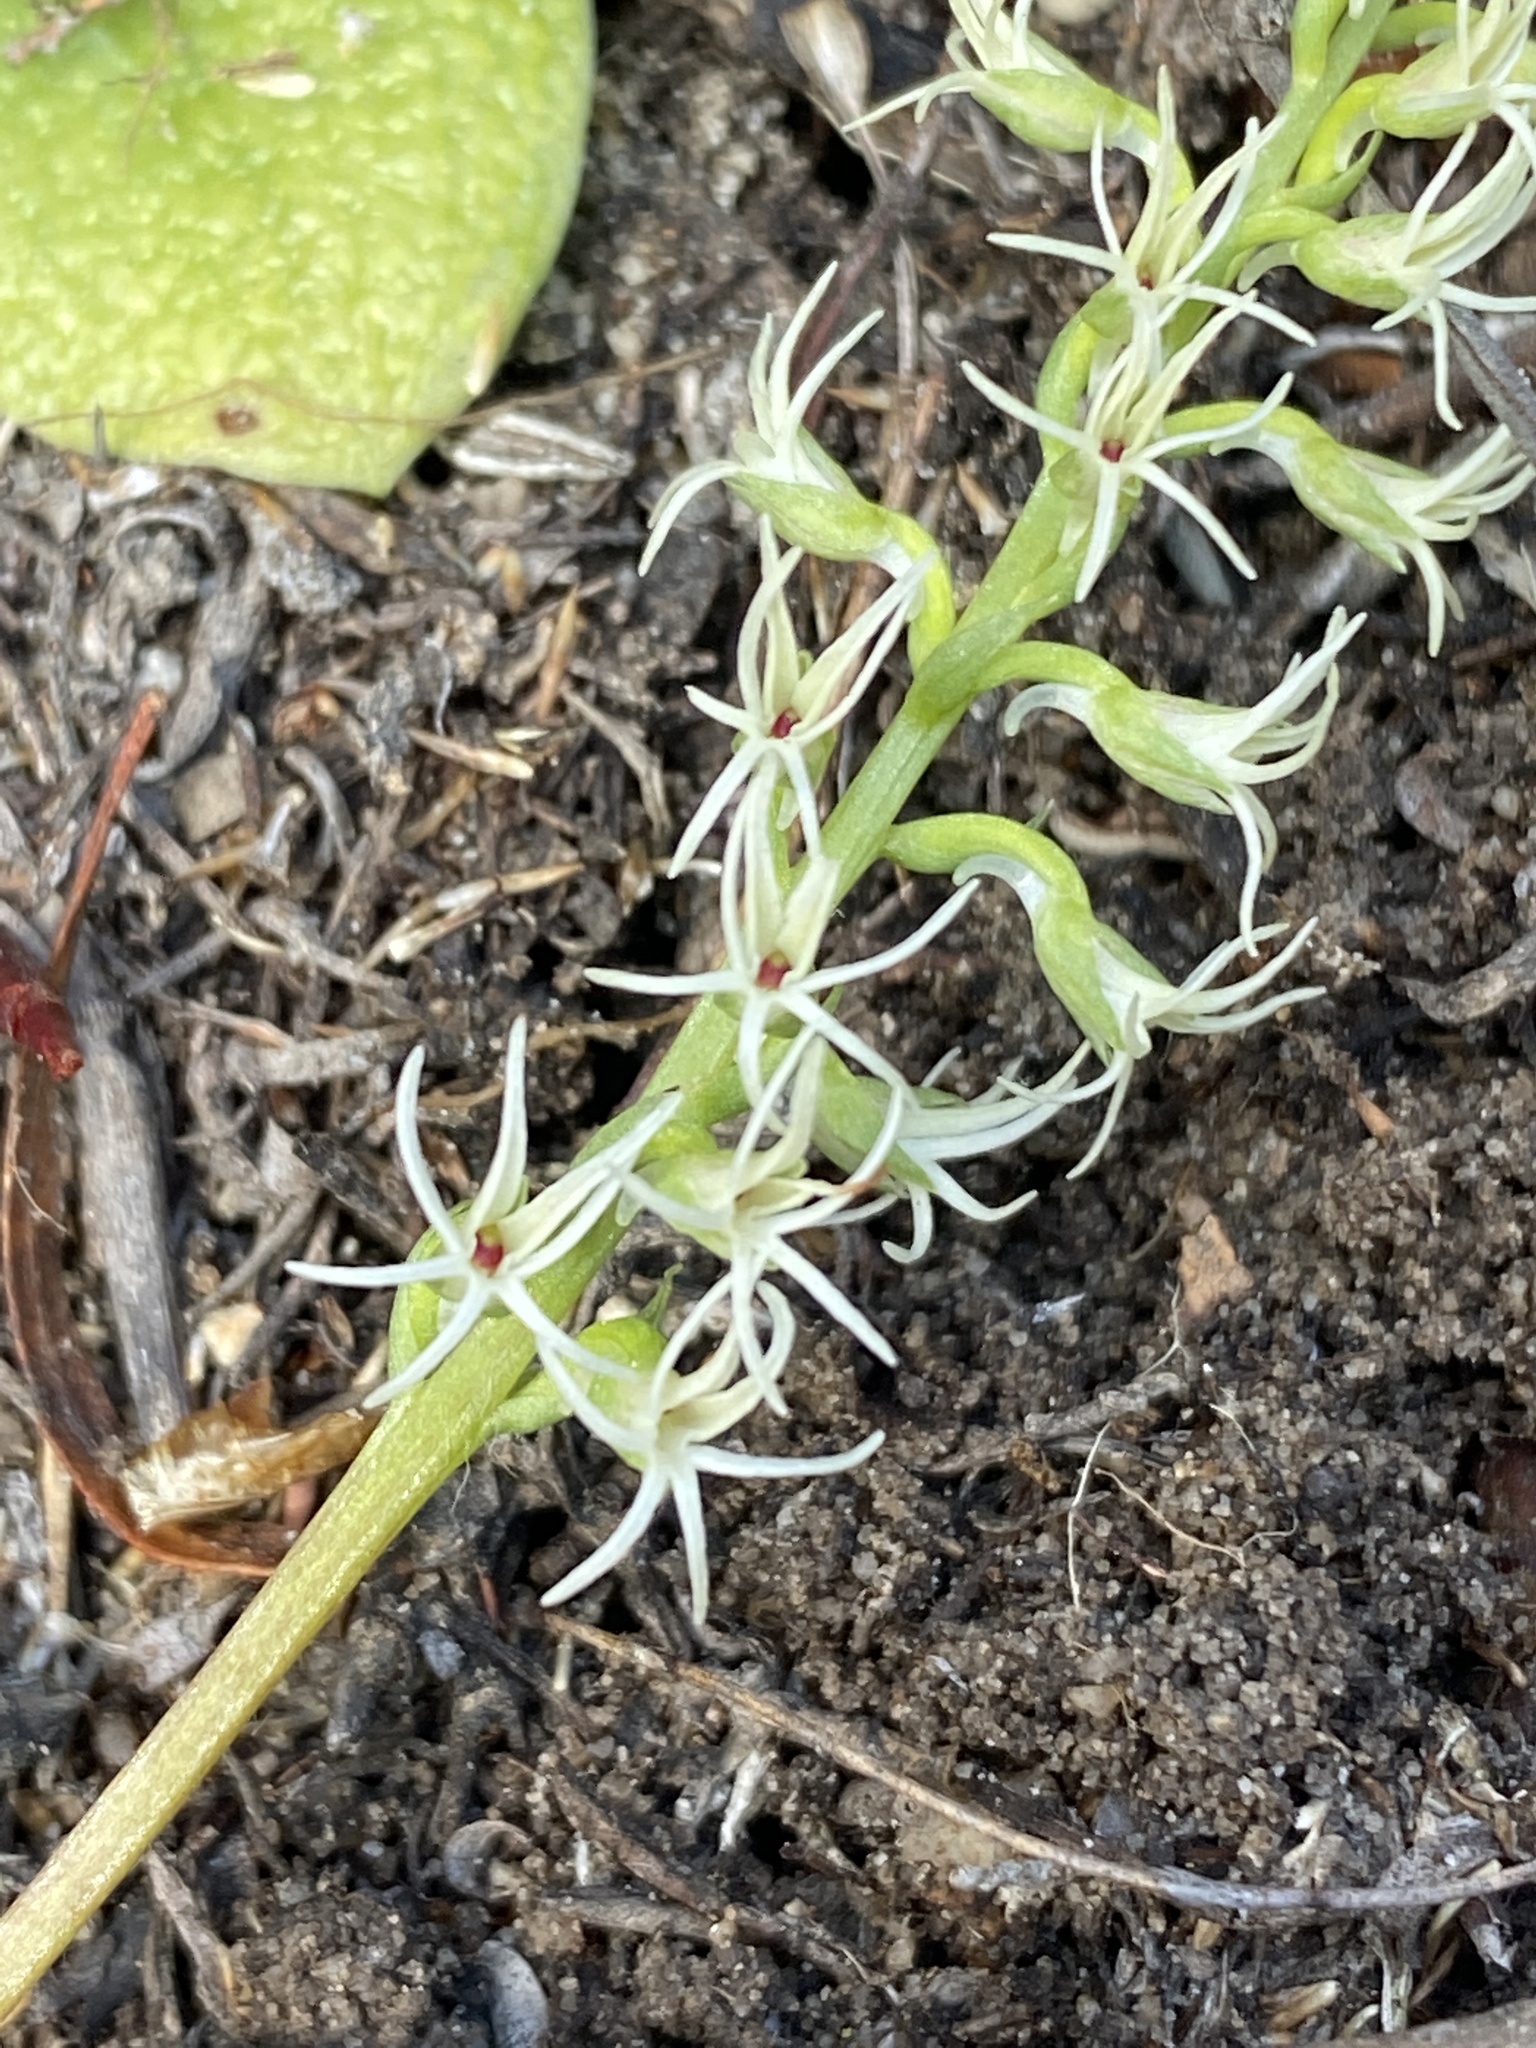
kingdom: Plantae
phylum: Tracheophyta
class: Liliopsida
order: Asparagales
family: Orchidaceae
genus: Holothrix
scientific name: Holothrix secunda
